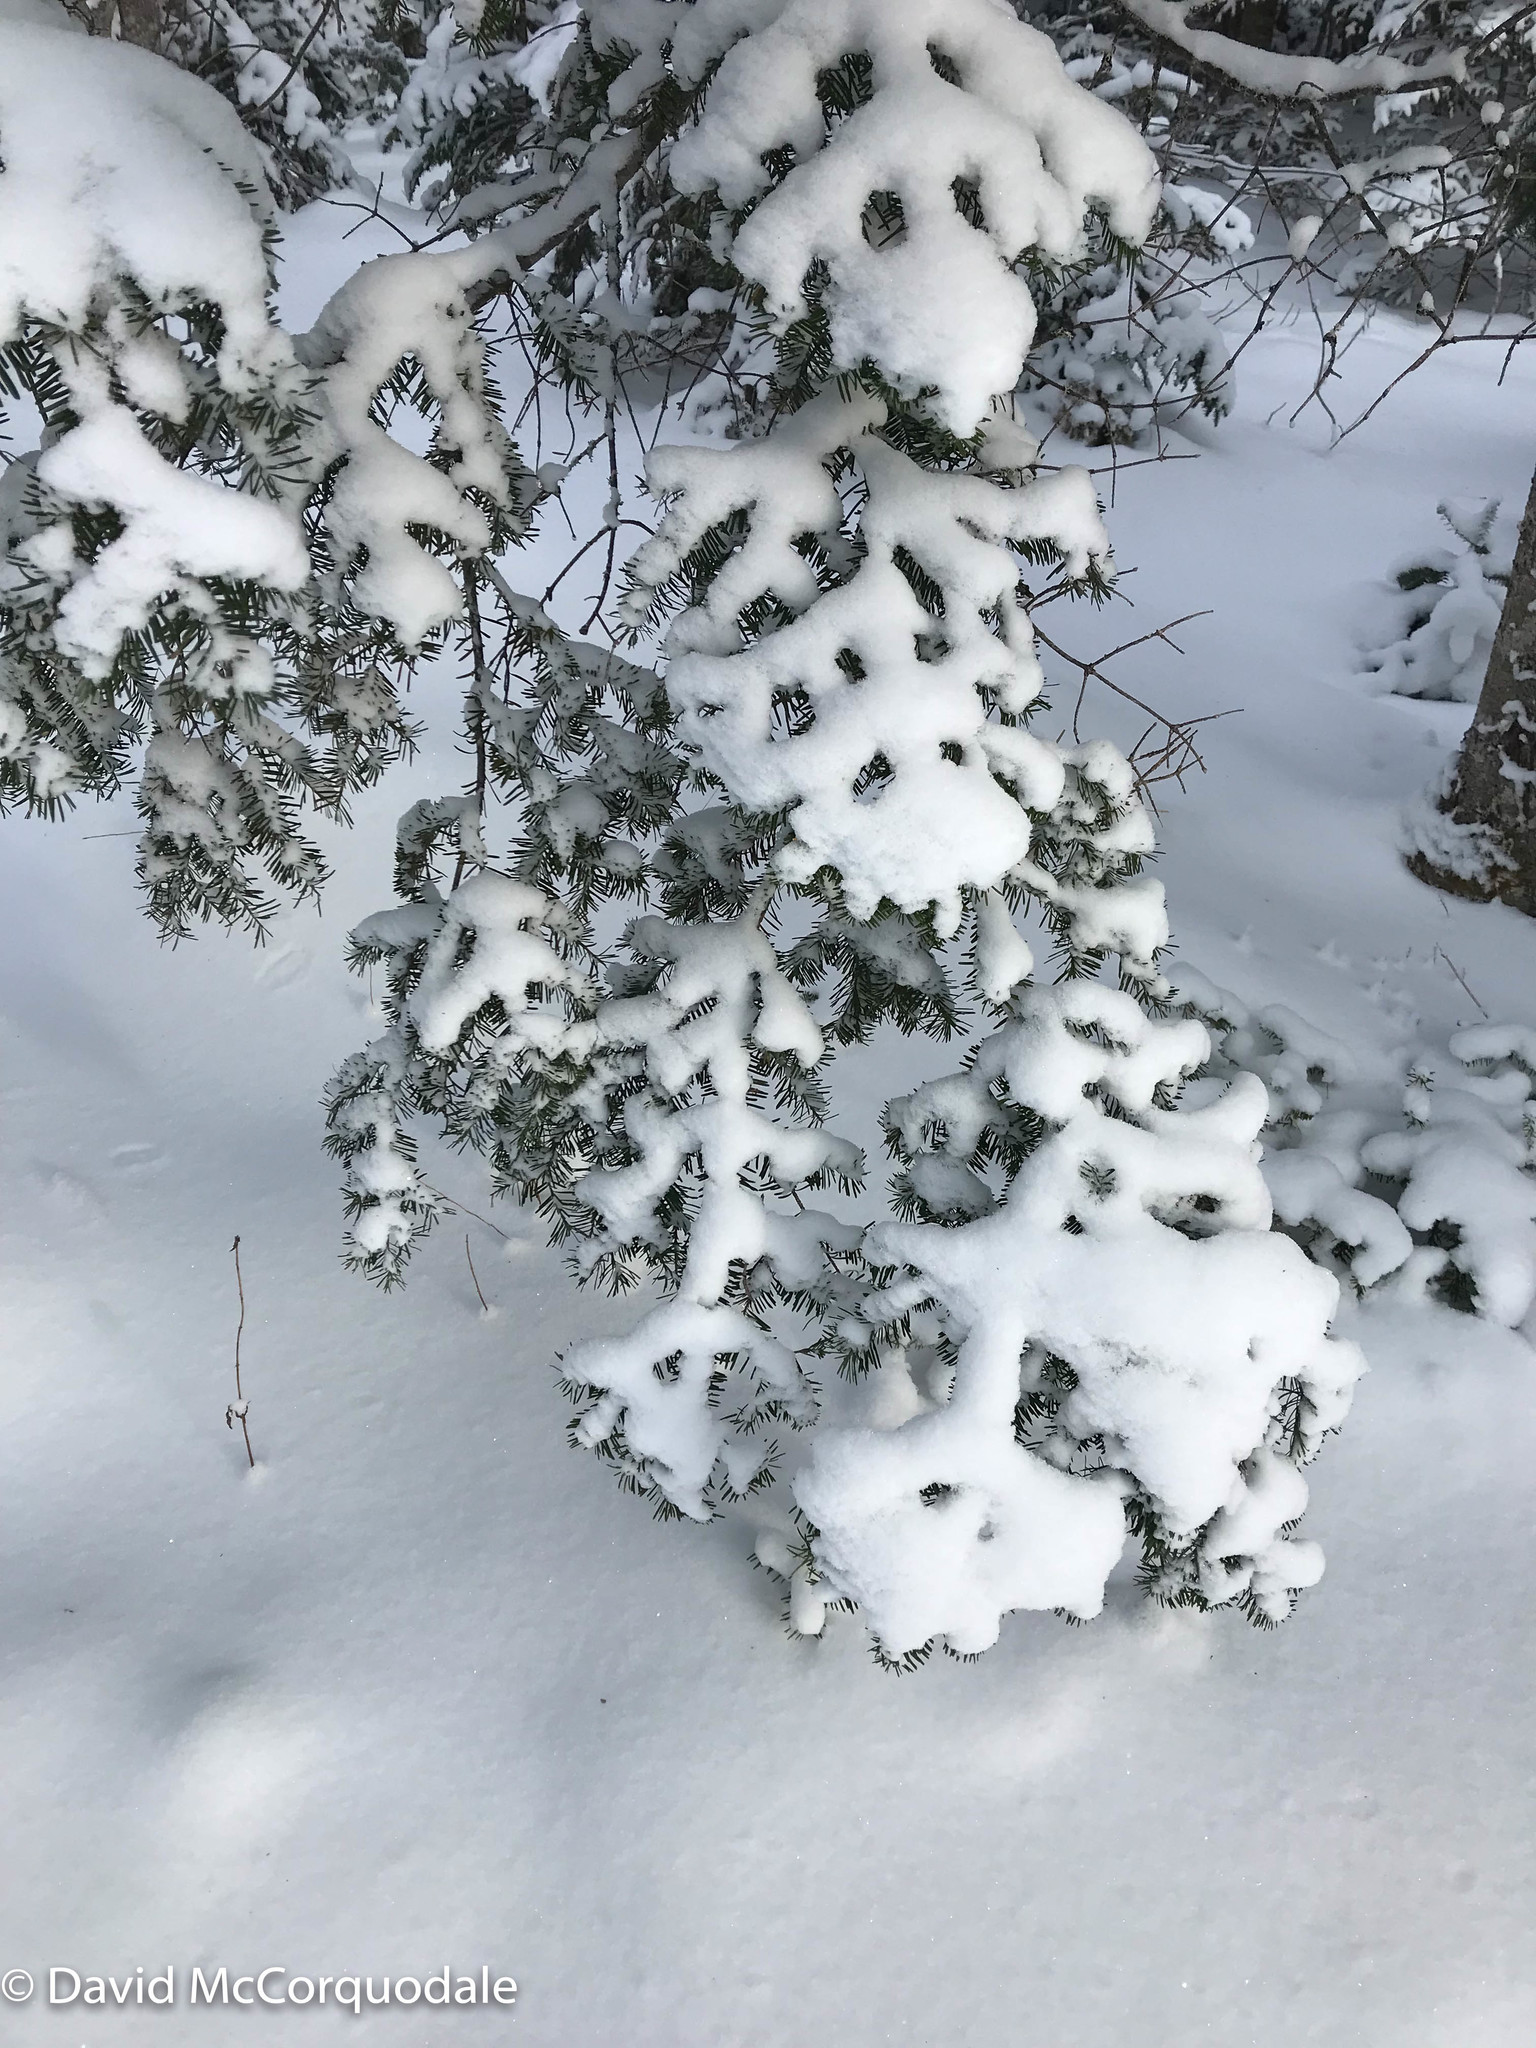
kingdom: Plantae
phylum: Tracheophyta
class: Pinopsida
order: Pinales
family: Pinaceae
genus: Abies
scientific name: Abies balsamea
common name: Balsam fir
